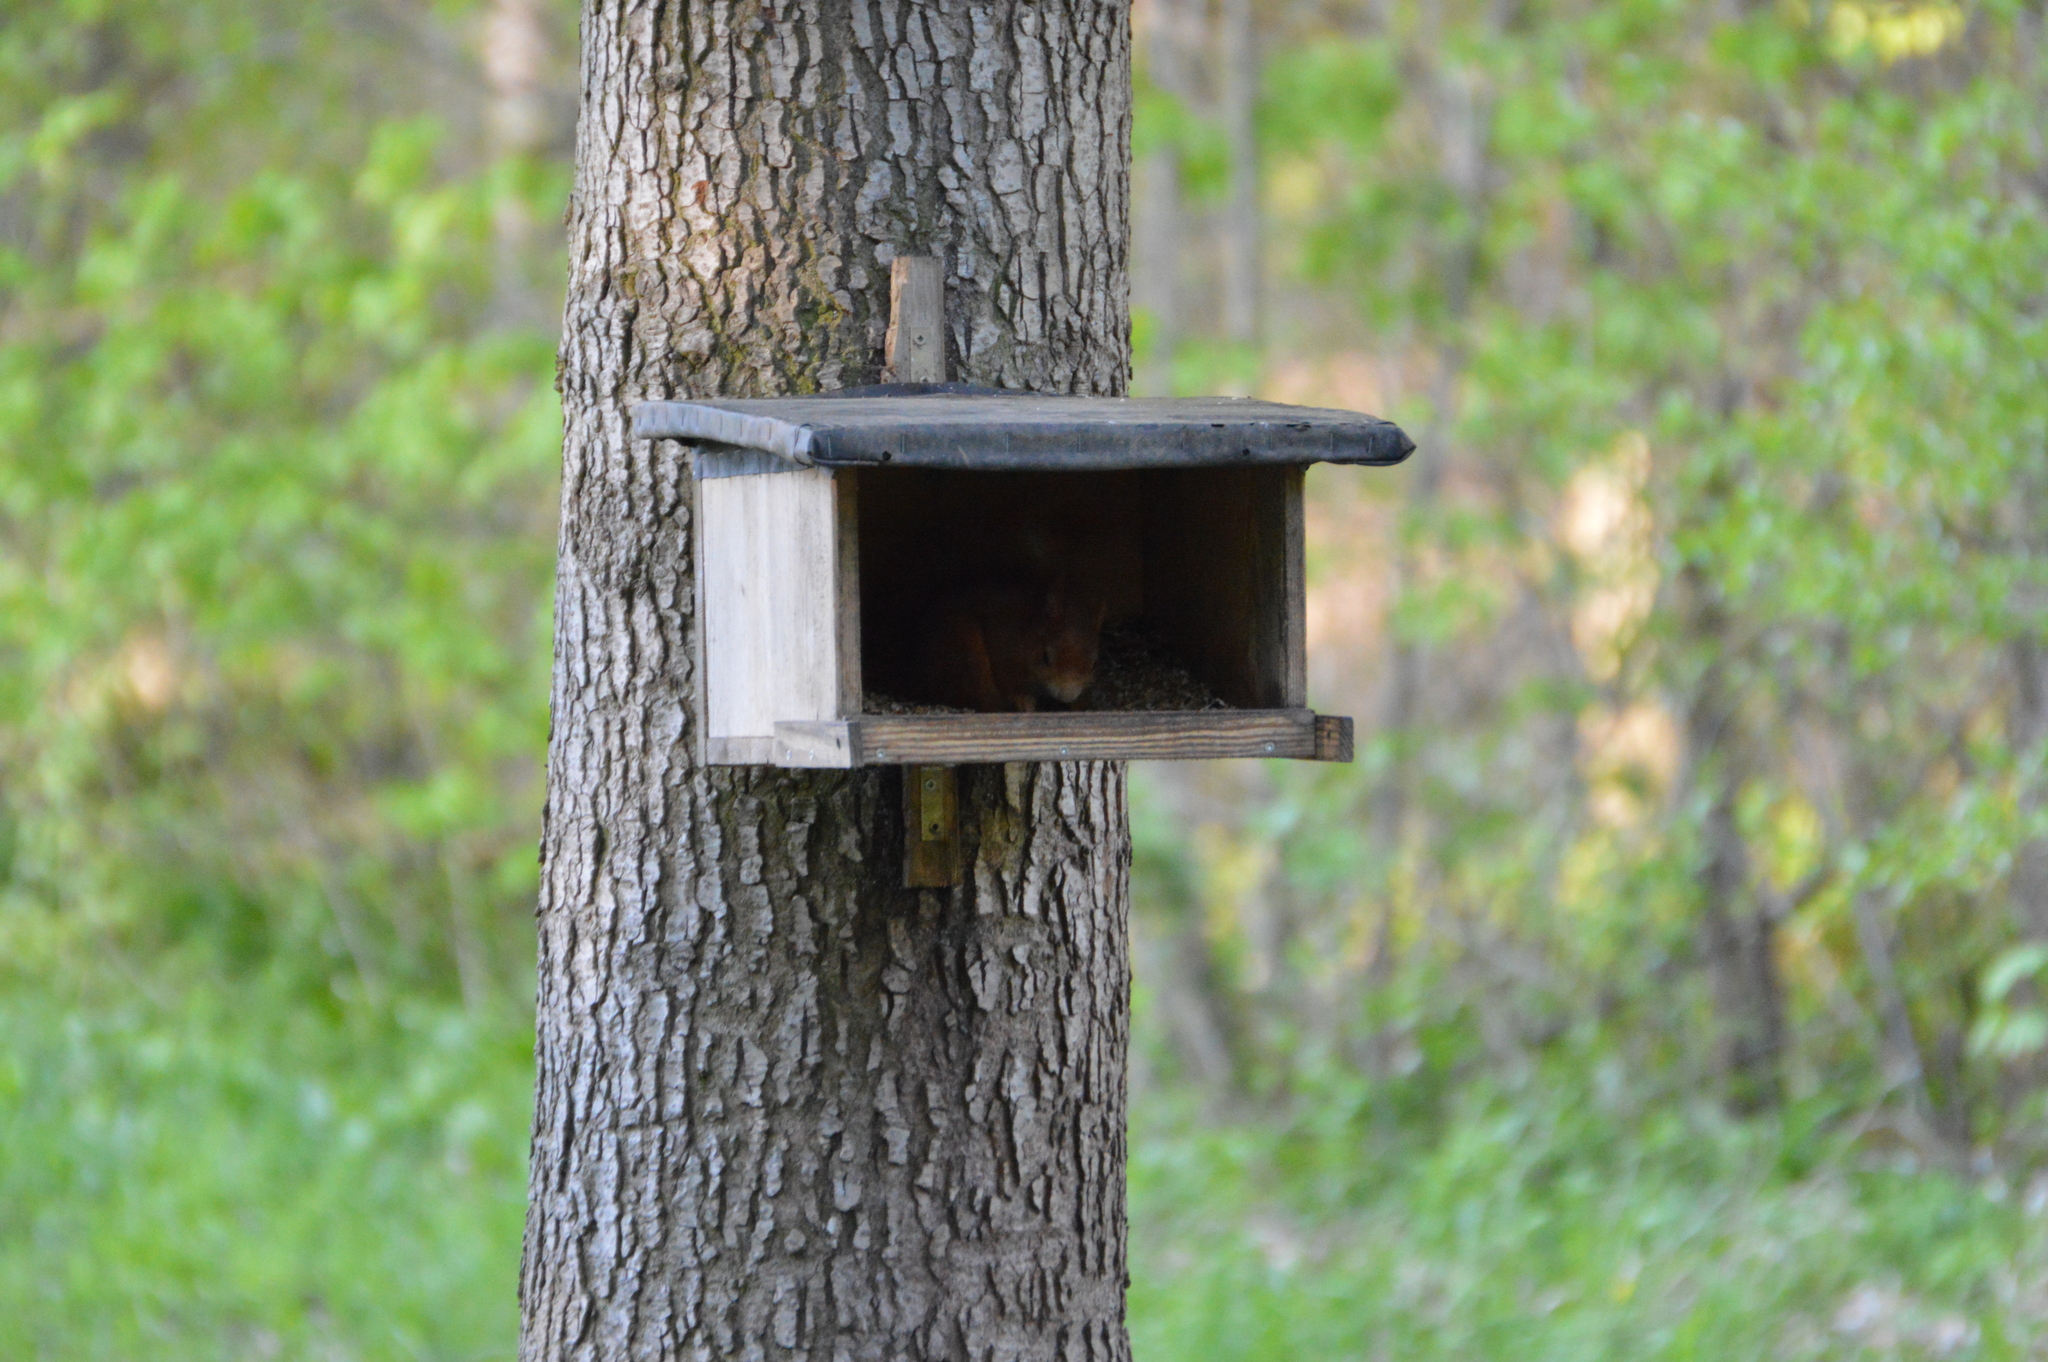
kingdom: Animalia
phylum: Chordata
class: Mammalia
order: Rodentia
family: Sciuridae
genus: Sciurus
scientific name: Sciurus vulgaris
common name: Eurasian red squirrel
